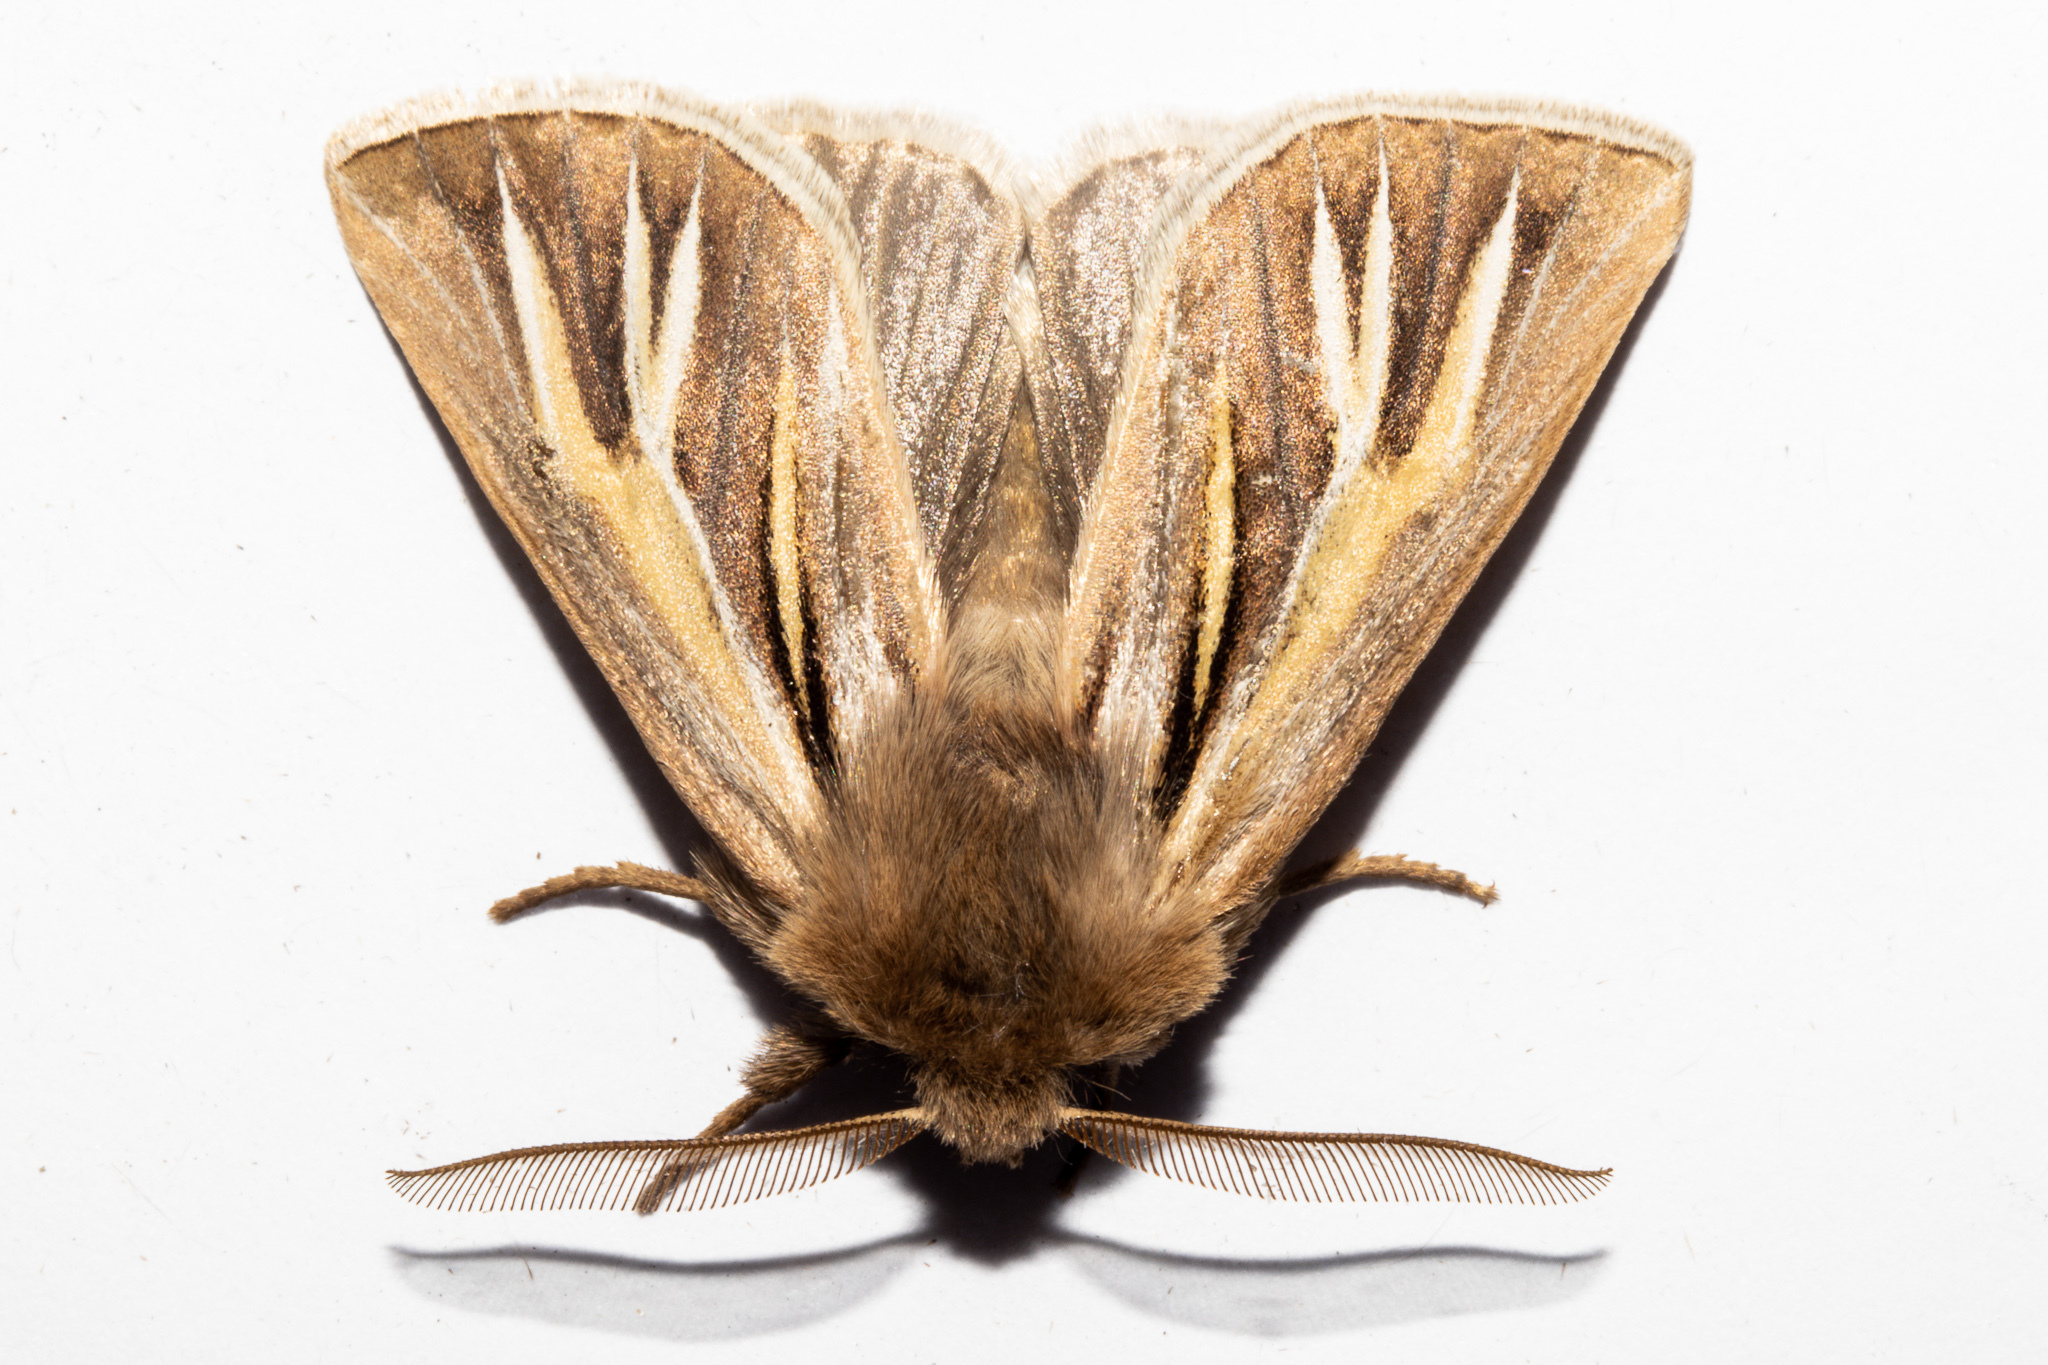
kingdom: Animalia
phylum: Arthropoda
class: Insecta
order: Lepidoptera
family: Noctuidae
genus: Ichneutica
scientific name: Ichneutica caraunias
